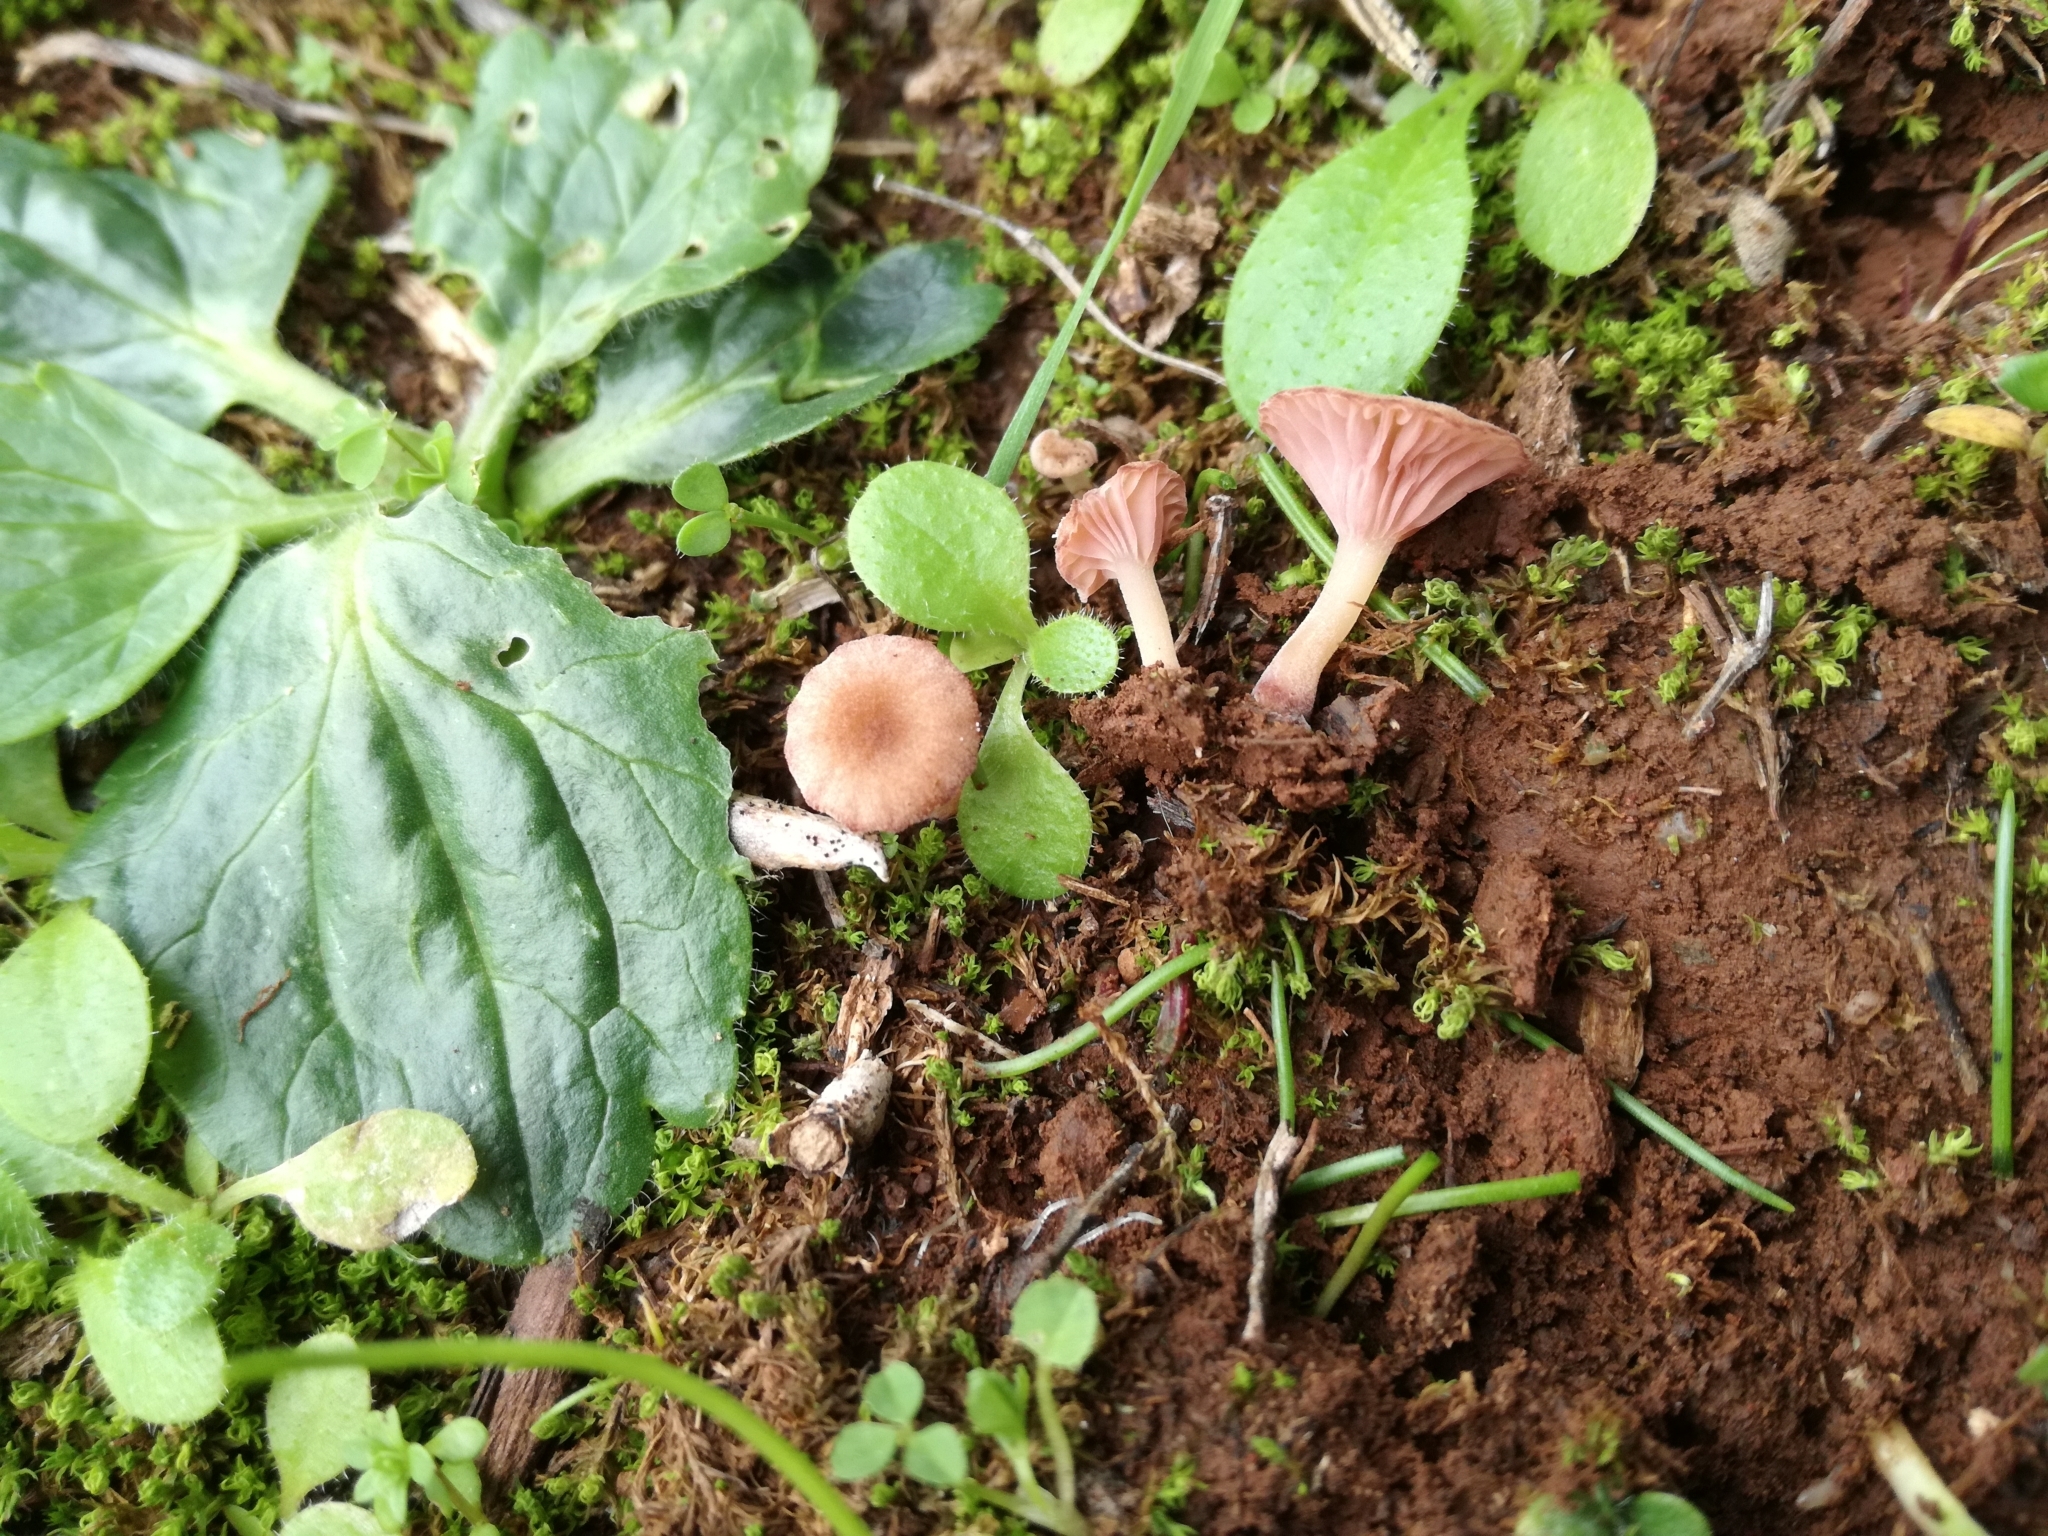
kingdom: Fungi
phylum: Basidiomycota
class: Agaricomycetes
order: Hymenochaetales
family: Rickenellaceae
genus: Contumyces
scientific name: Contumyces rosellus
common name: Rosy navel
